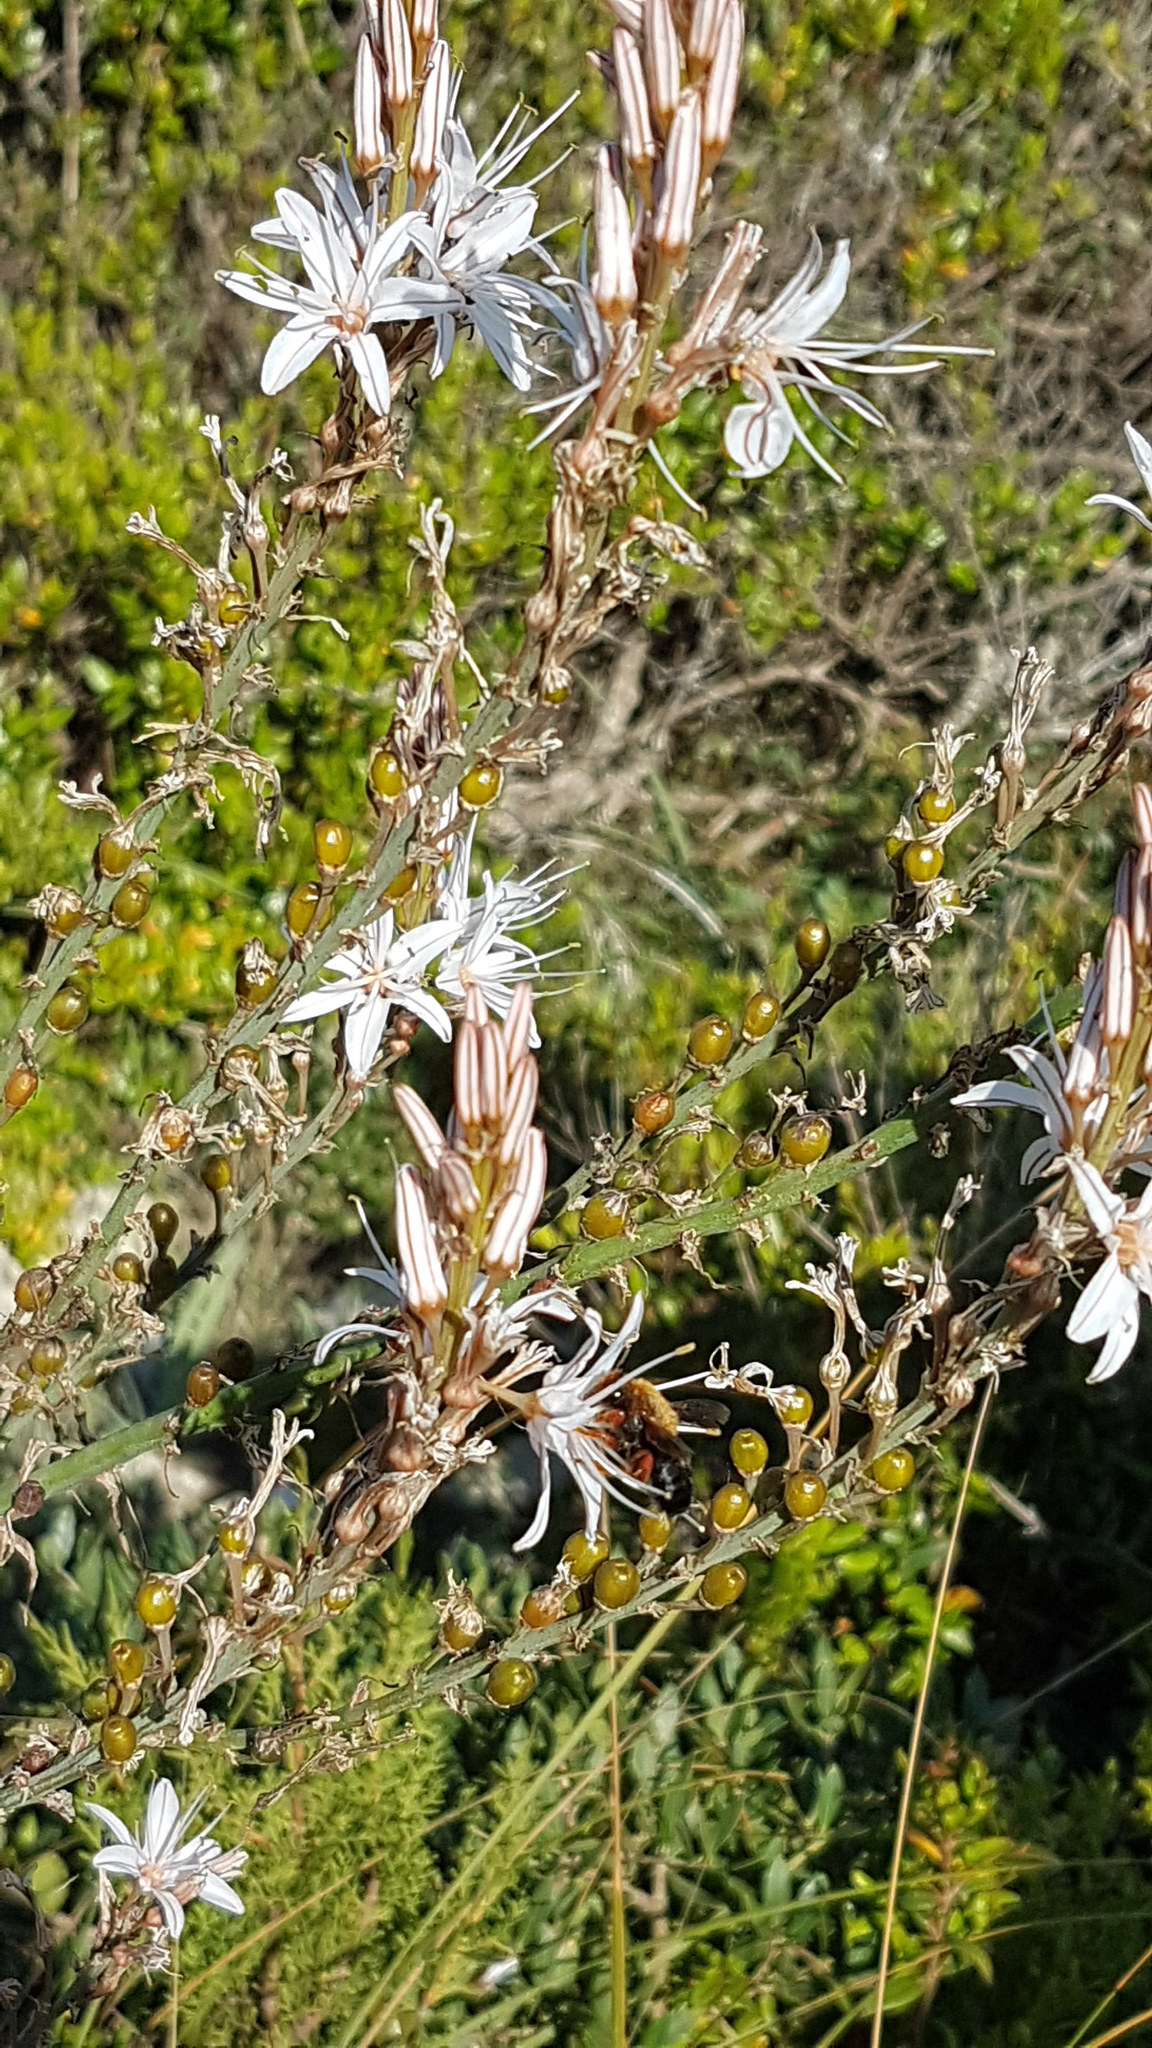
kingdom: Plantae
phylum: Tracheophyta
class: Liliopsida
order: Asparagales
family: Asphodelaceae
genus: Asphodelus
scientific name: Asphodelus ramosus
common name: Silverrod
